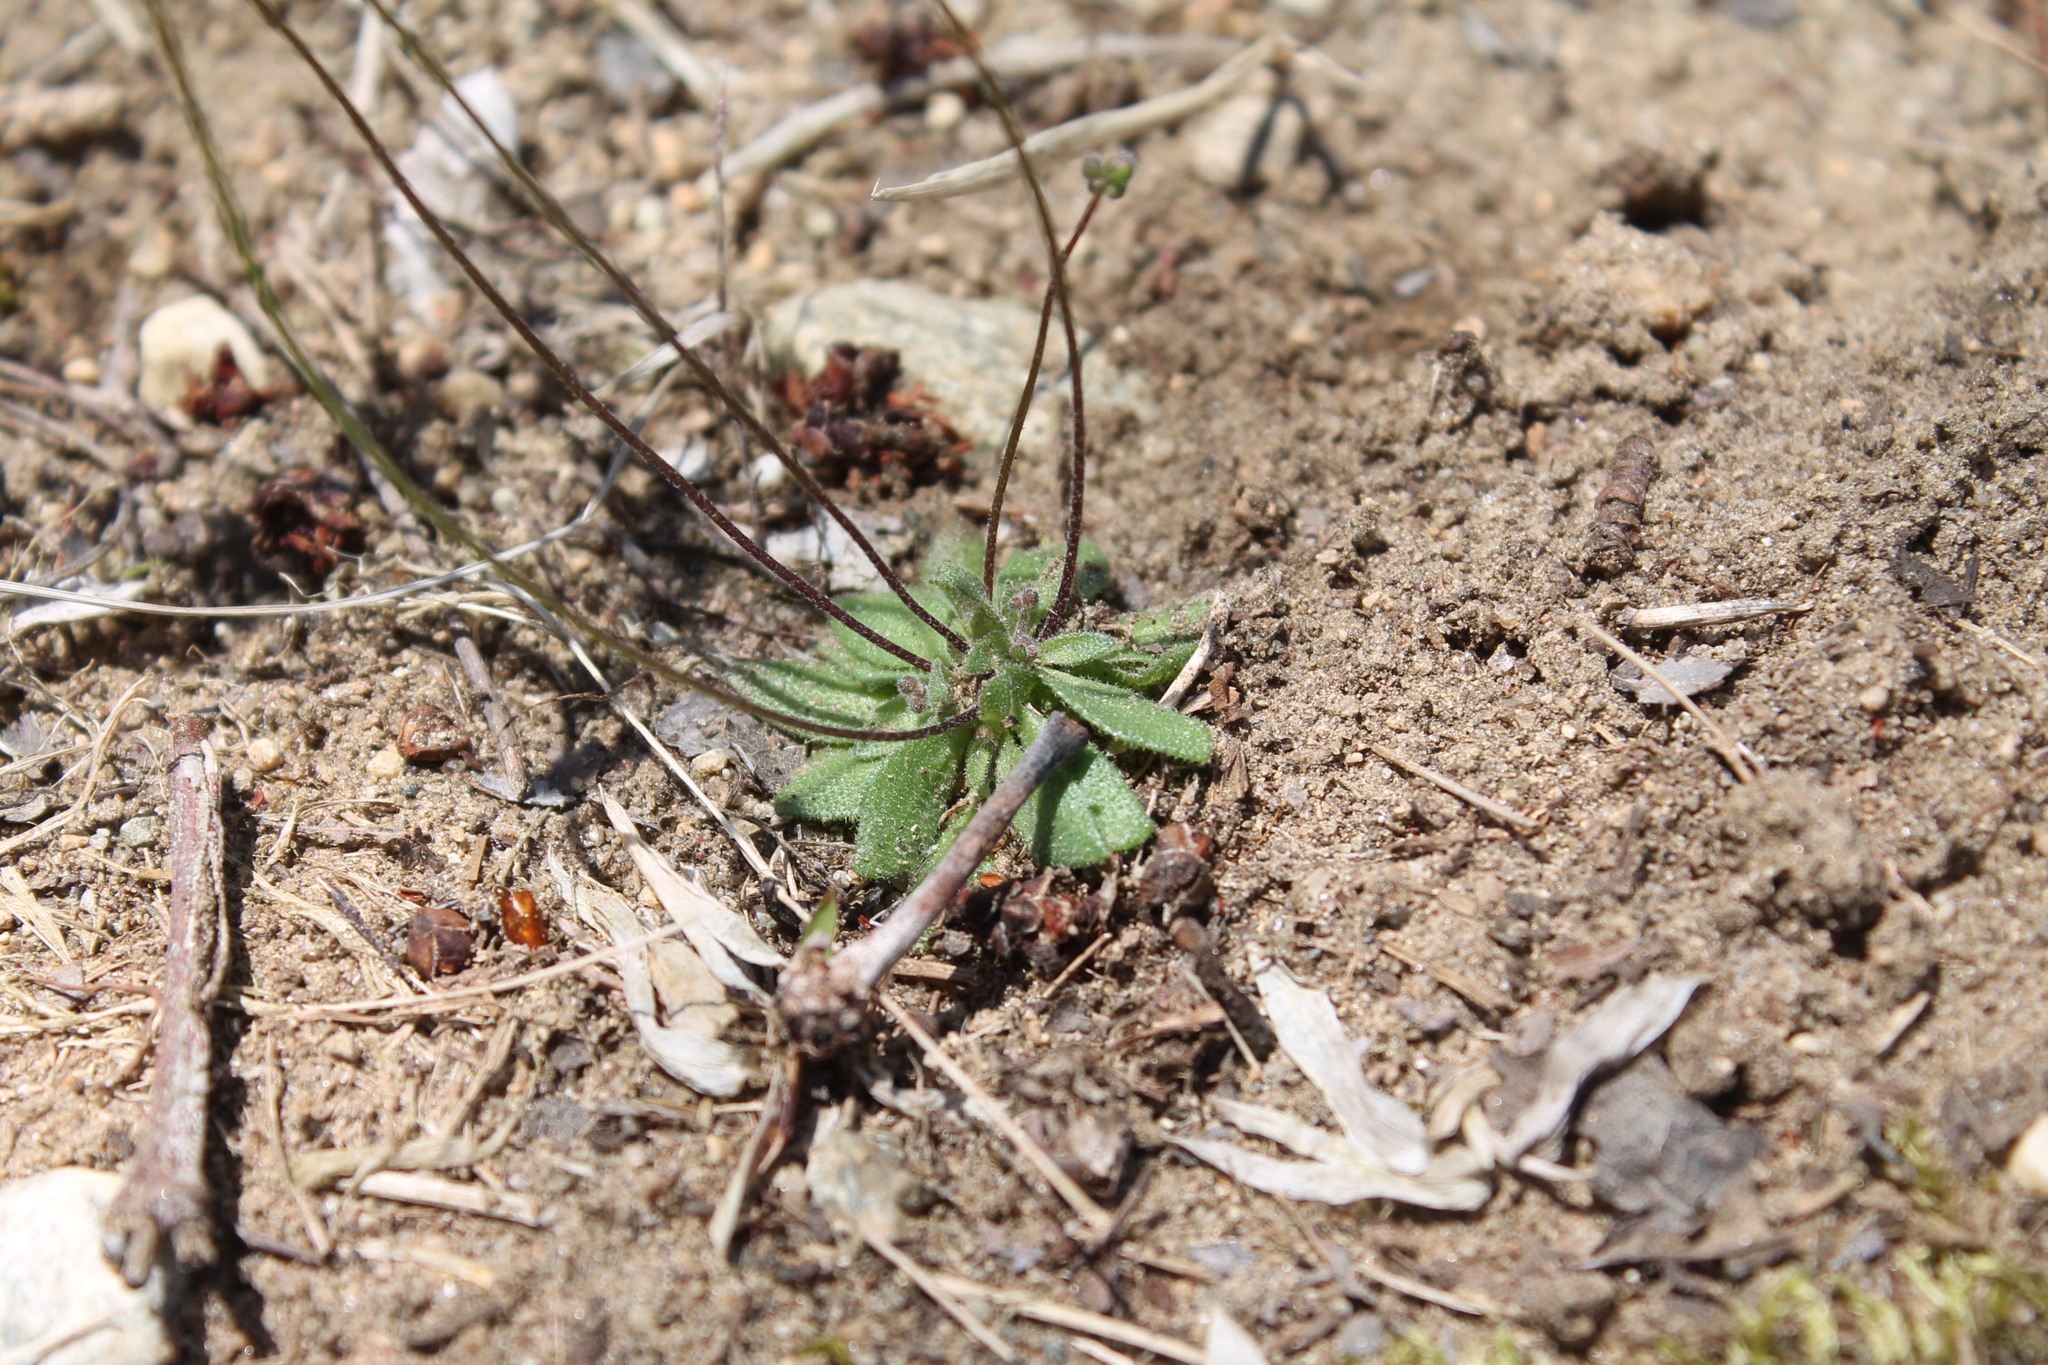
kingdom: Plantae
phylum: Tracheophyta
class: Magnoliopsida
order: Brassicales
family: Brassicaceae
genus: Draba
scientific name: Draba verna
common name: Spring draba
